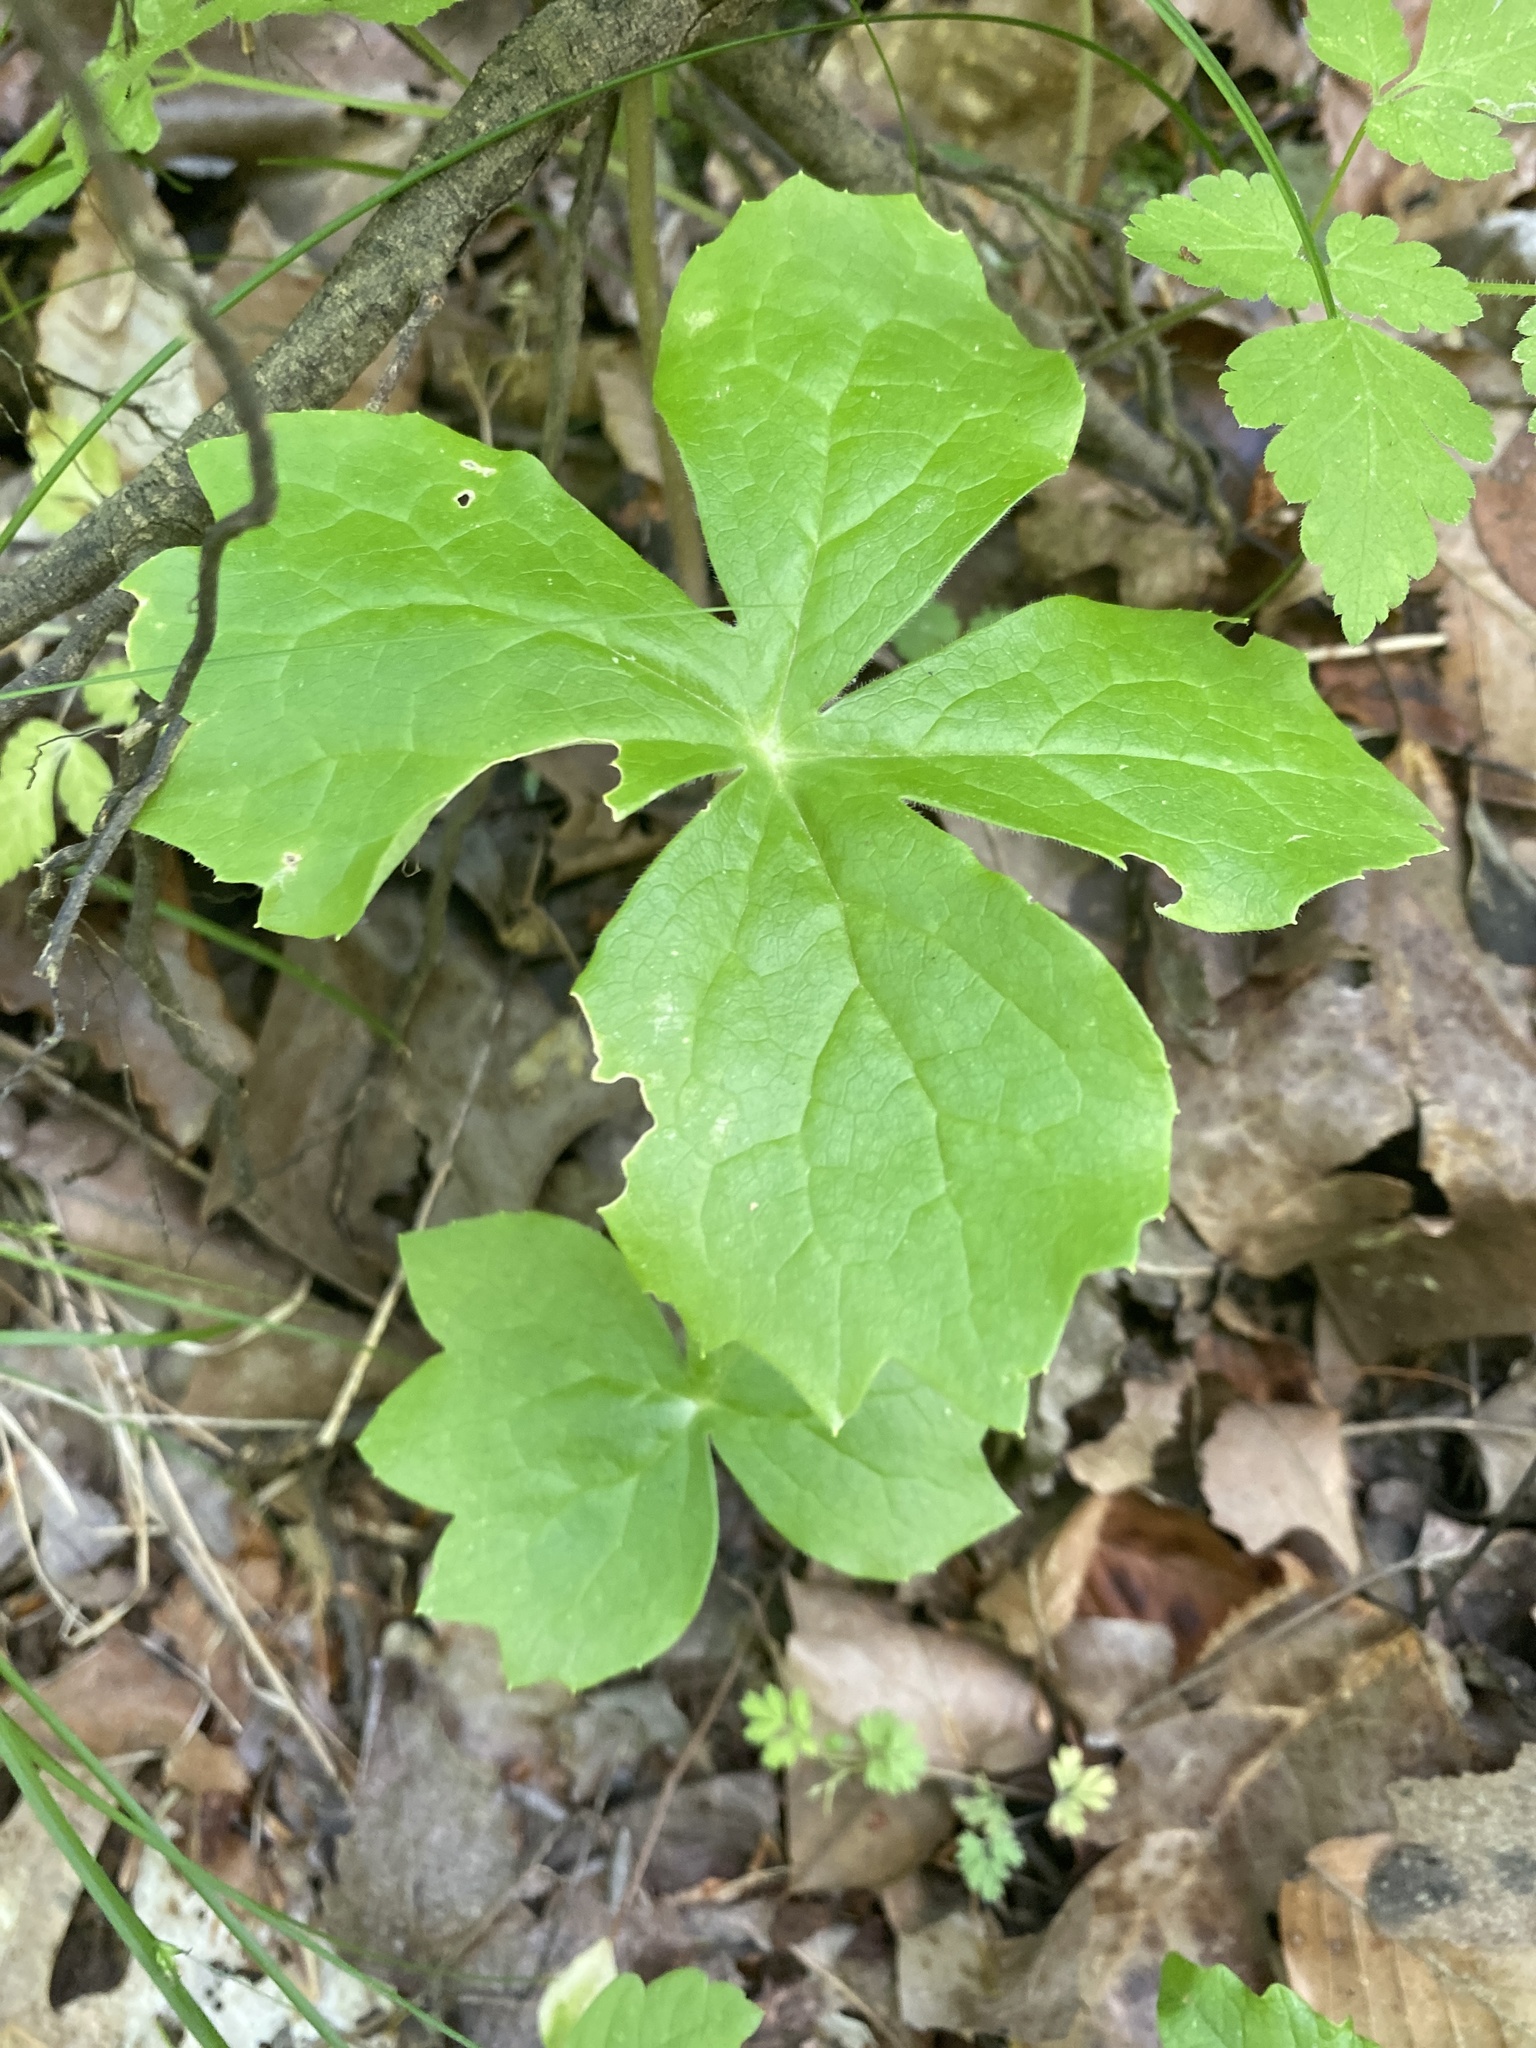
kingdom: Plantae
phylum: Tracheophyta
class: Magnoliopsida
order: Ranunculales
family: Berberidaceae
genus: Podophyllum
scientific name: Podophyllum peltatum
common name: Wild mandrake
